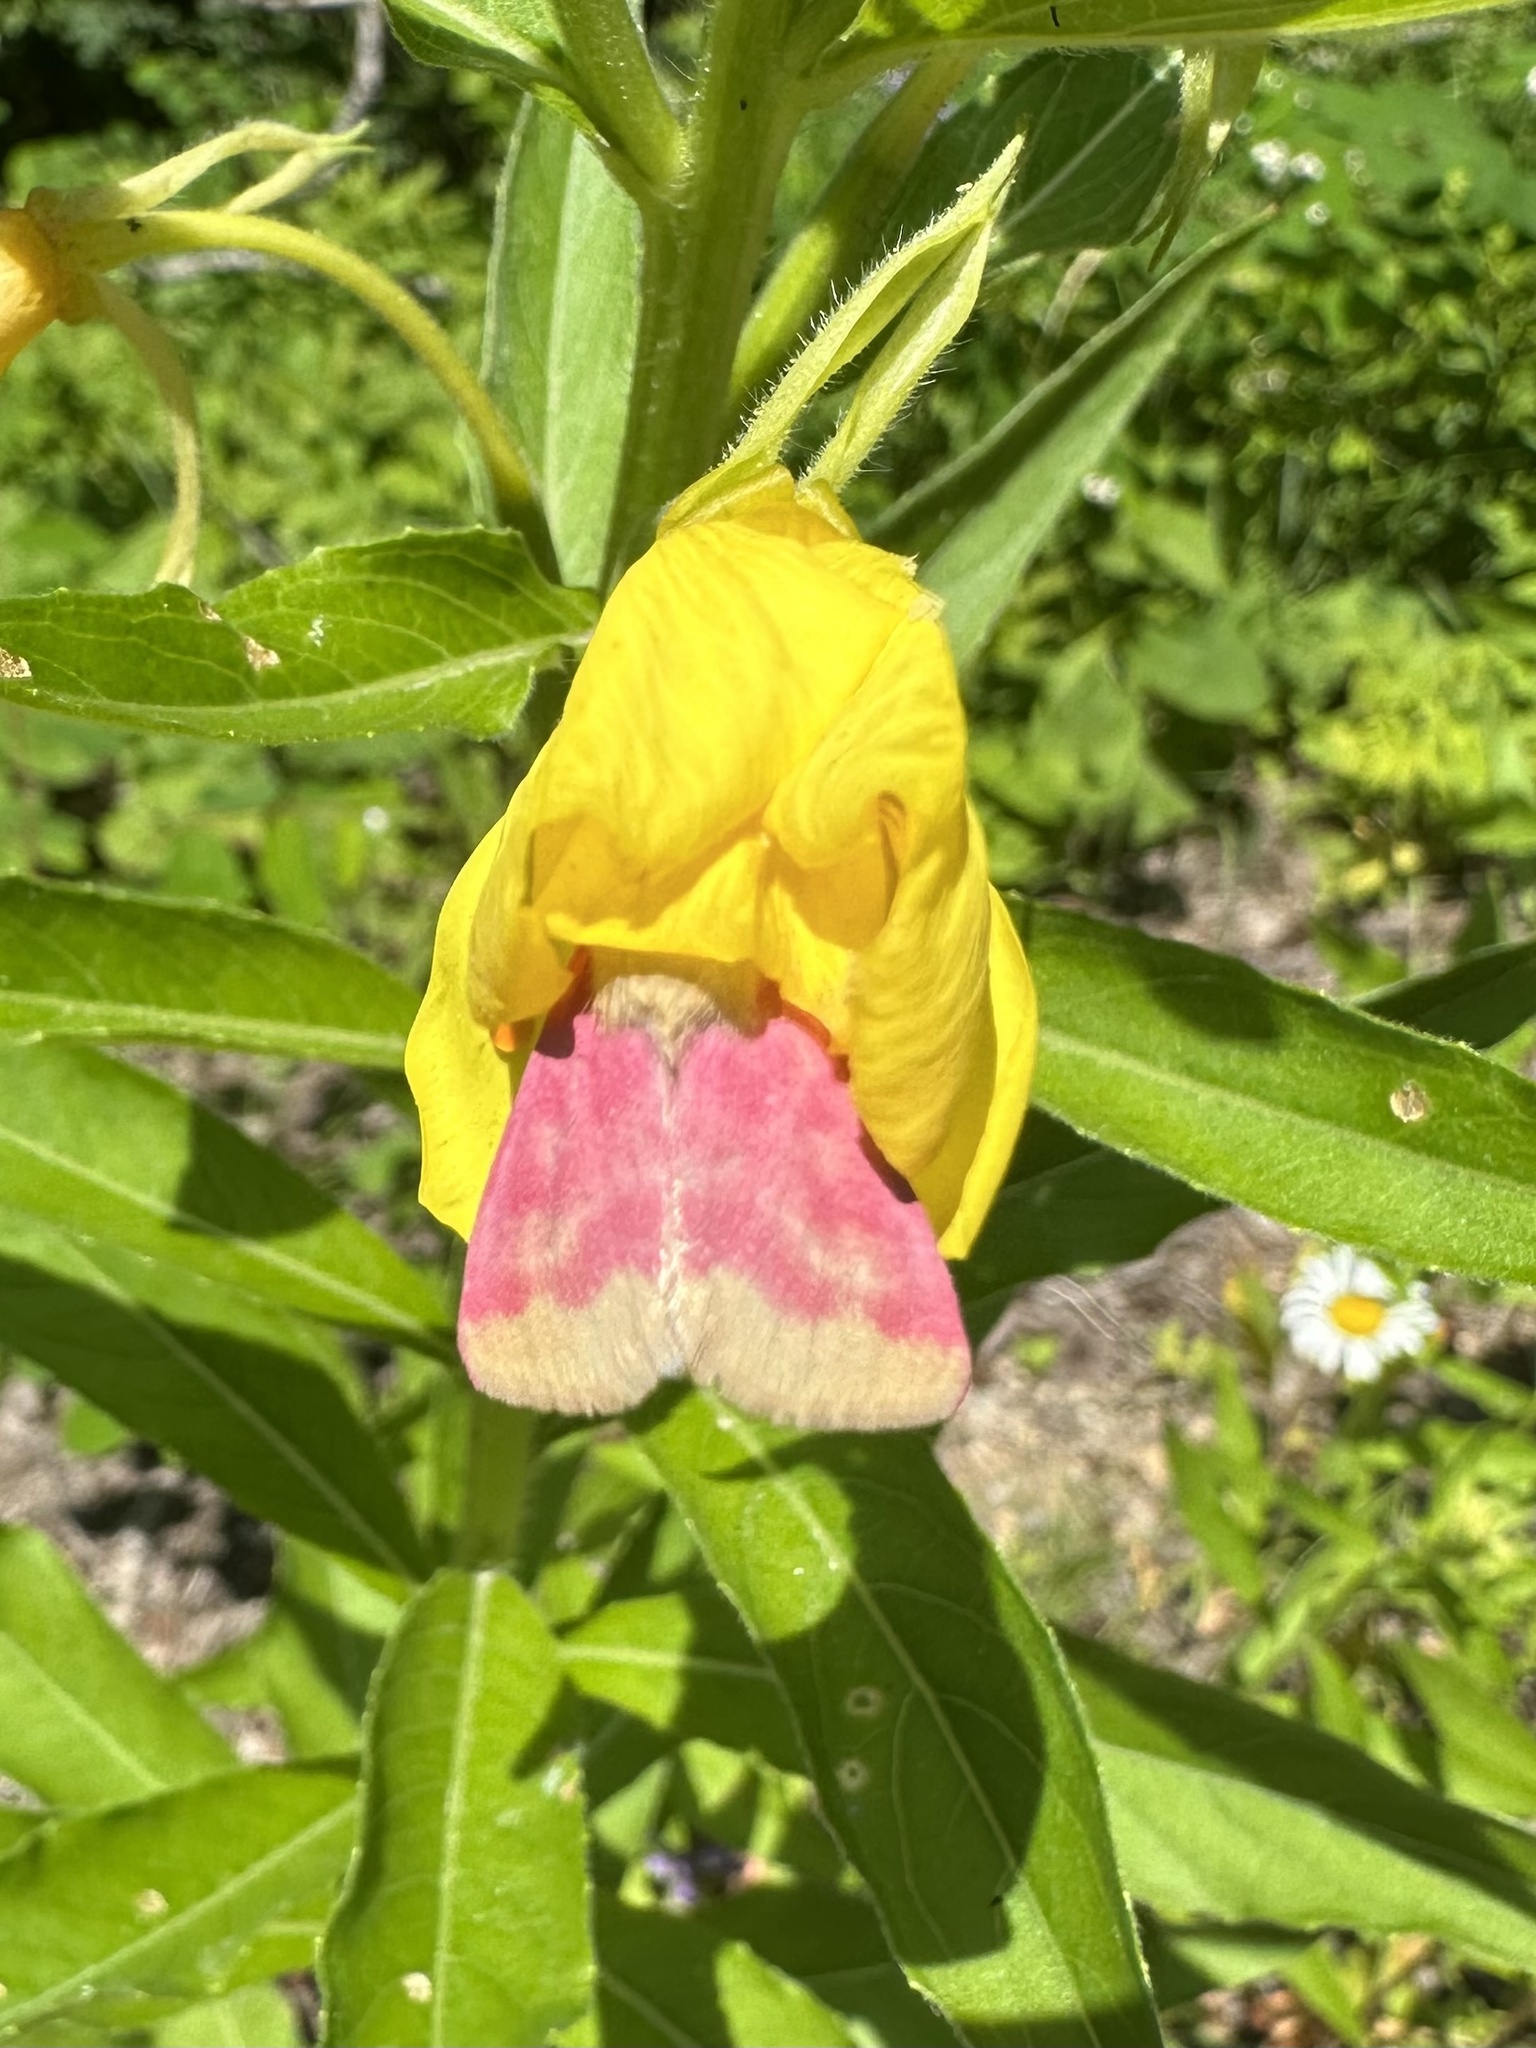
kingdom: Animalia
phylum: Arthropoda
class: Insecta
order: Lepidoptera
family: Noctuidae
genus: Schinia
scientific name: Schinia florida
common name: Primrose moth
